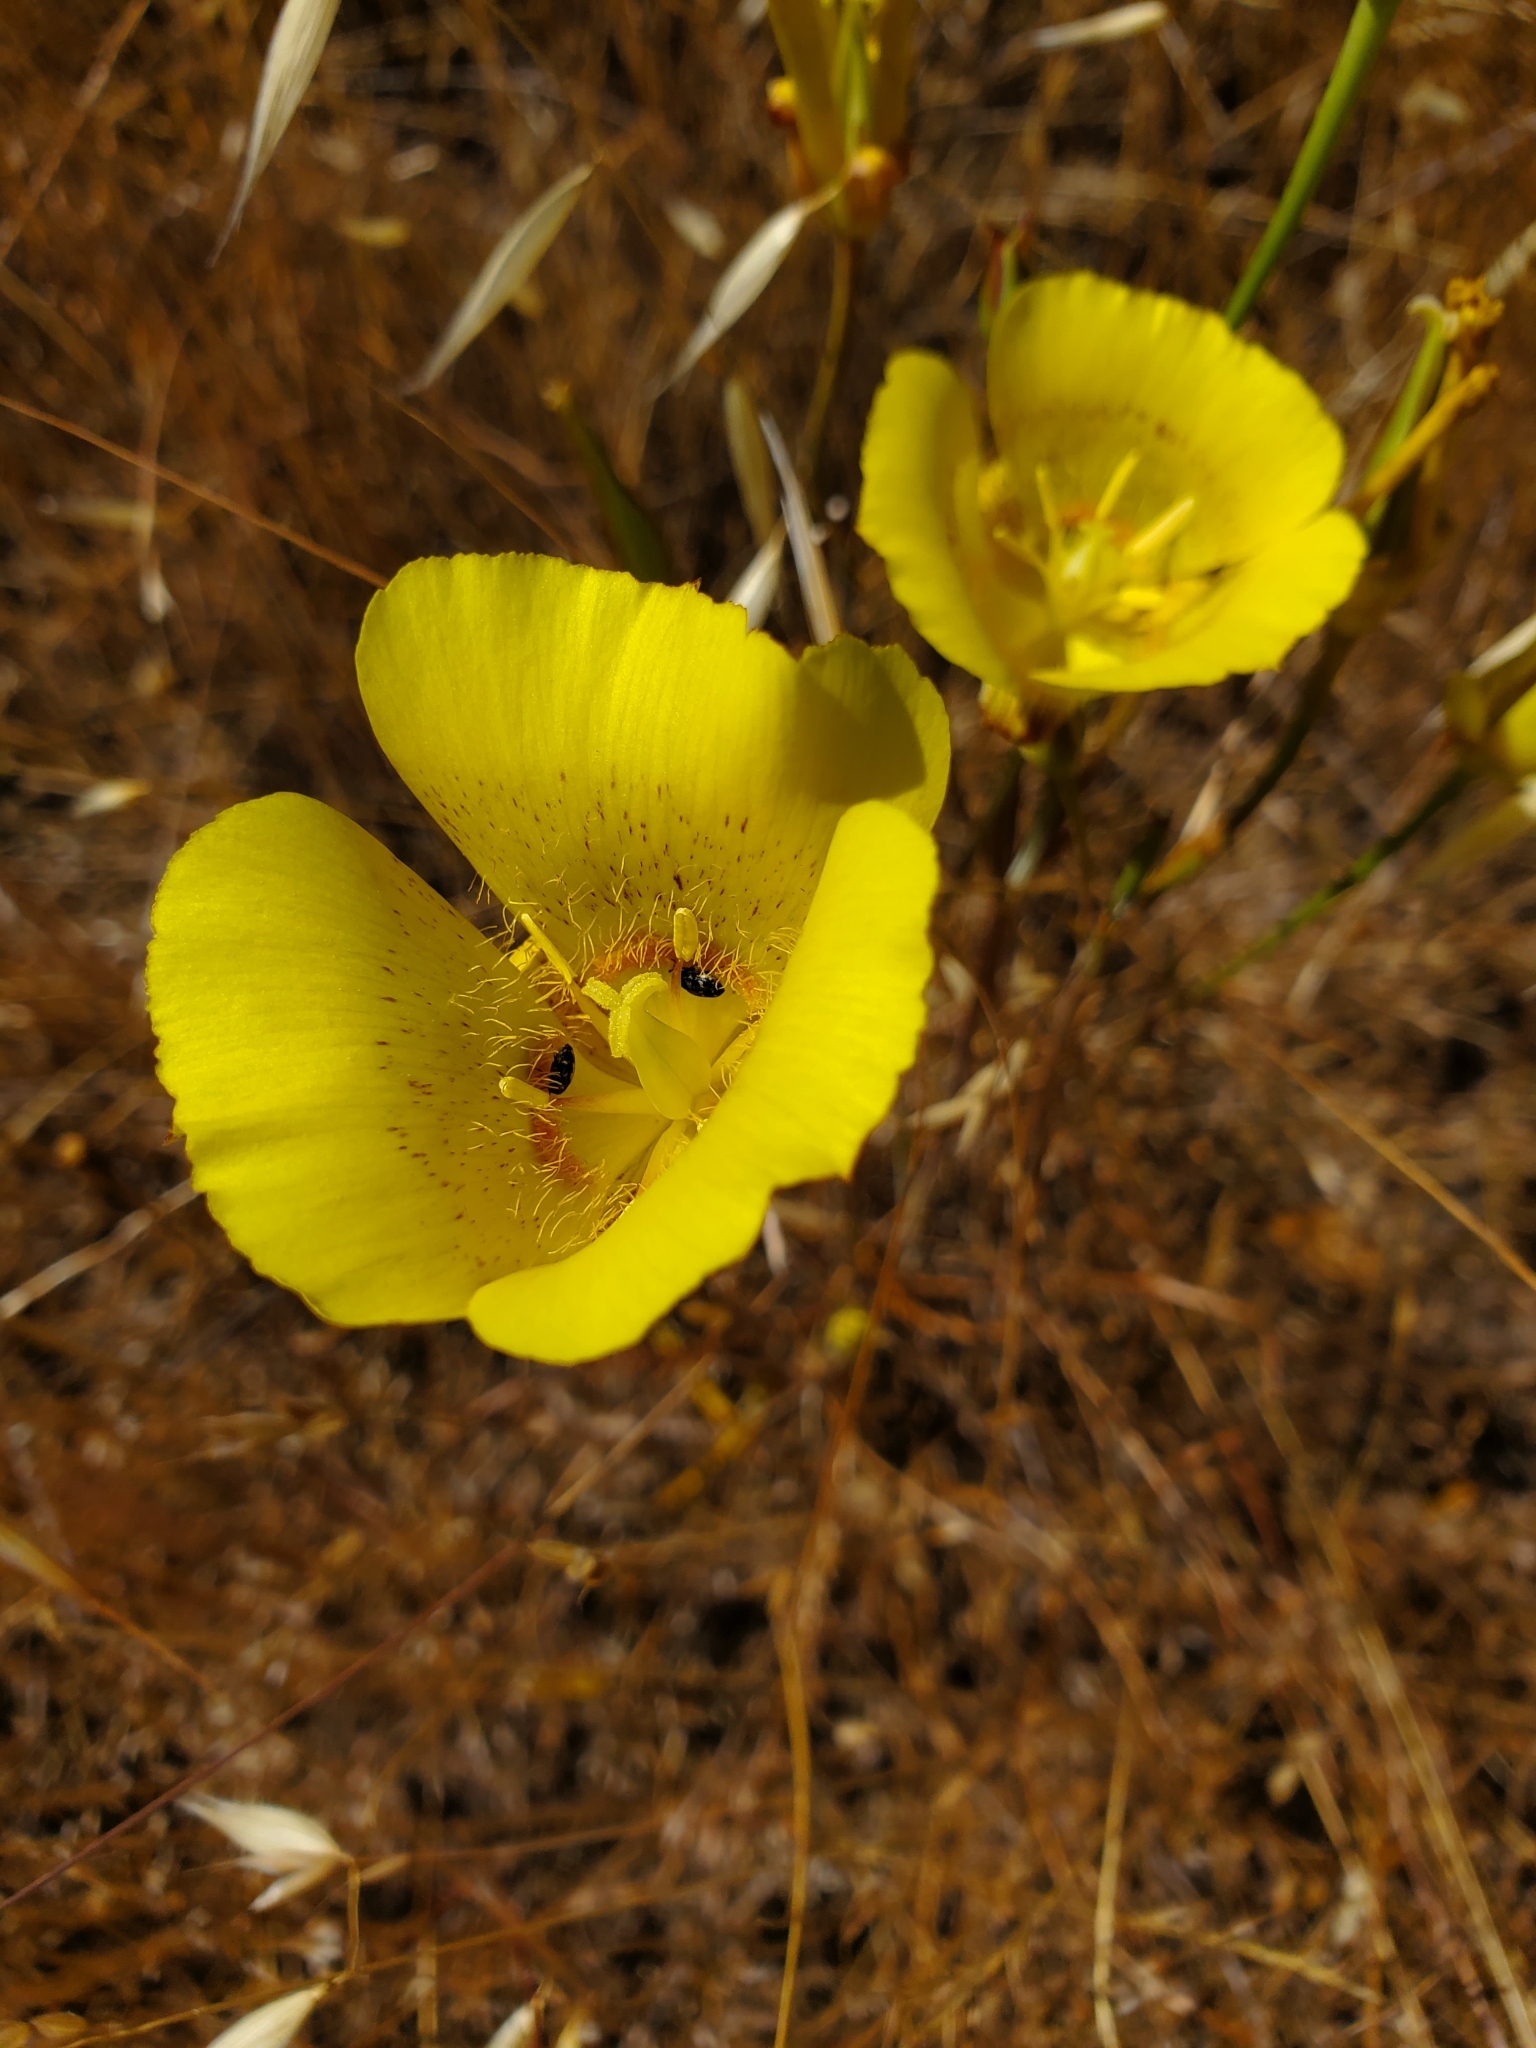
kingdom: Plantae
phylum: Tracheophyta
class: Liliopsida
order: Liliales
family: Liliaceae
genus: Calochortus
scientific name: Calochortus luteus
